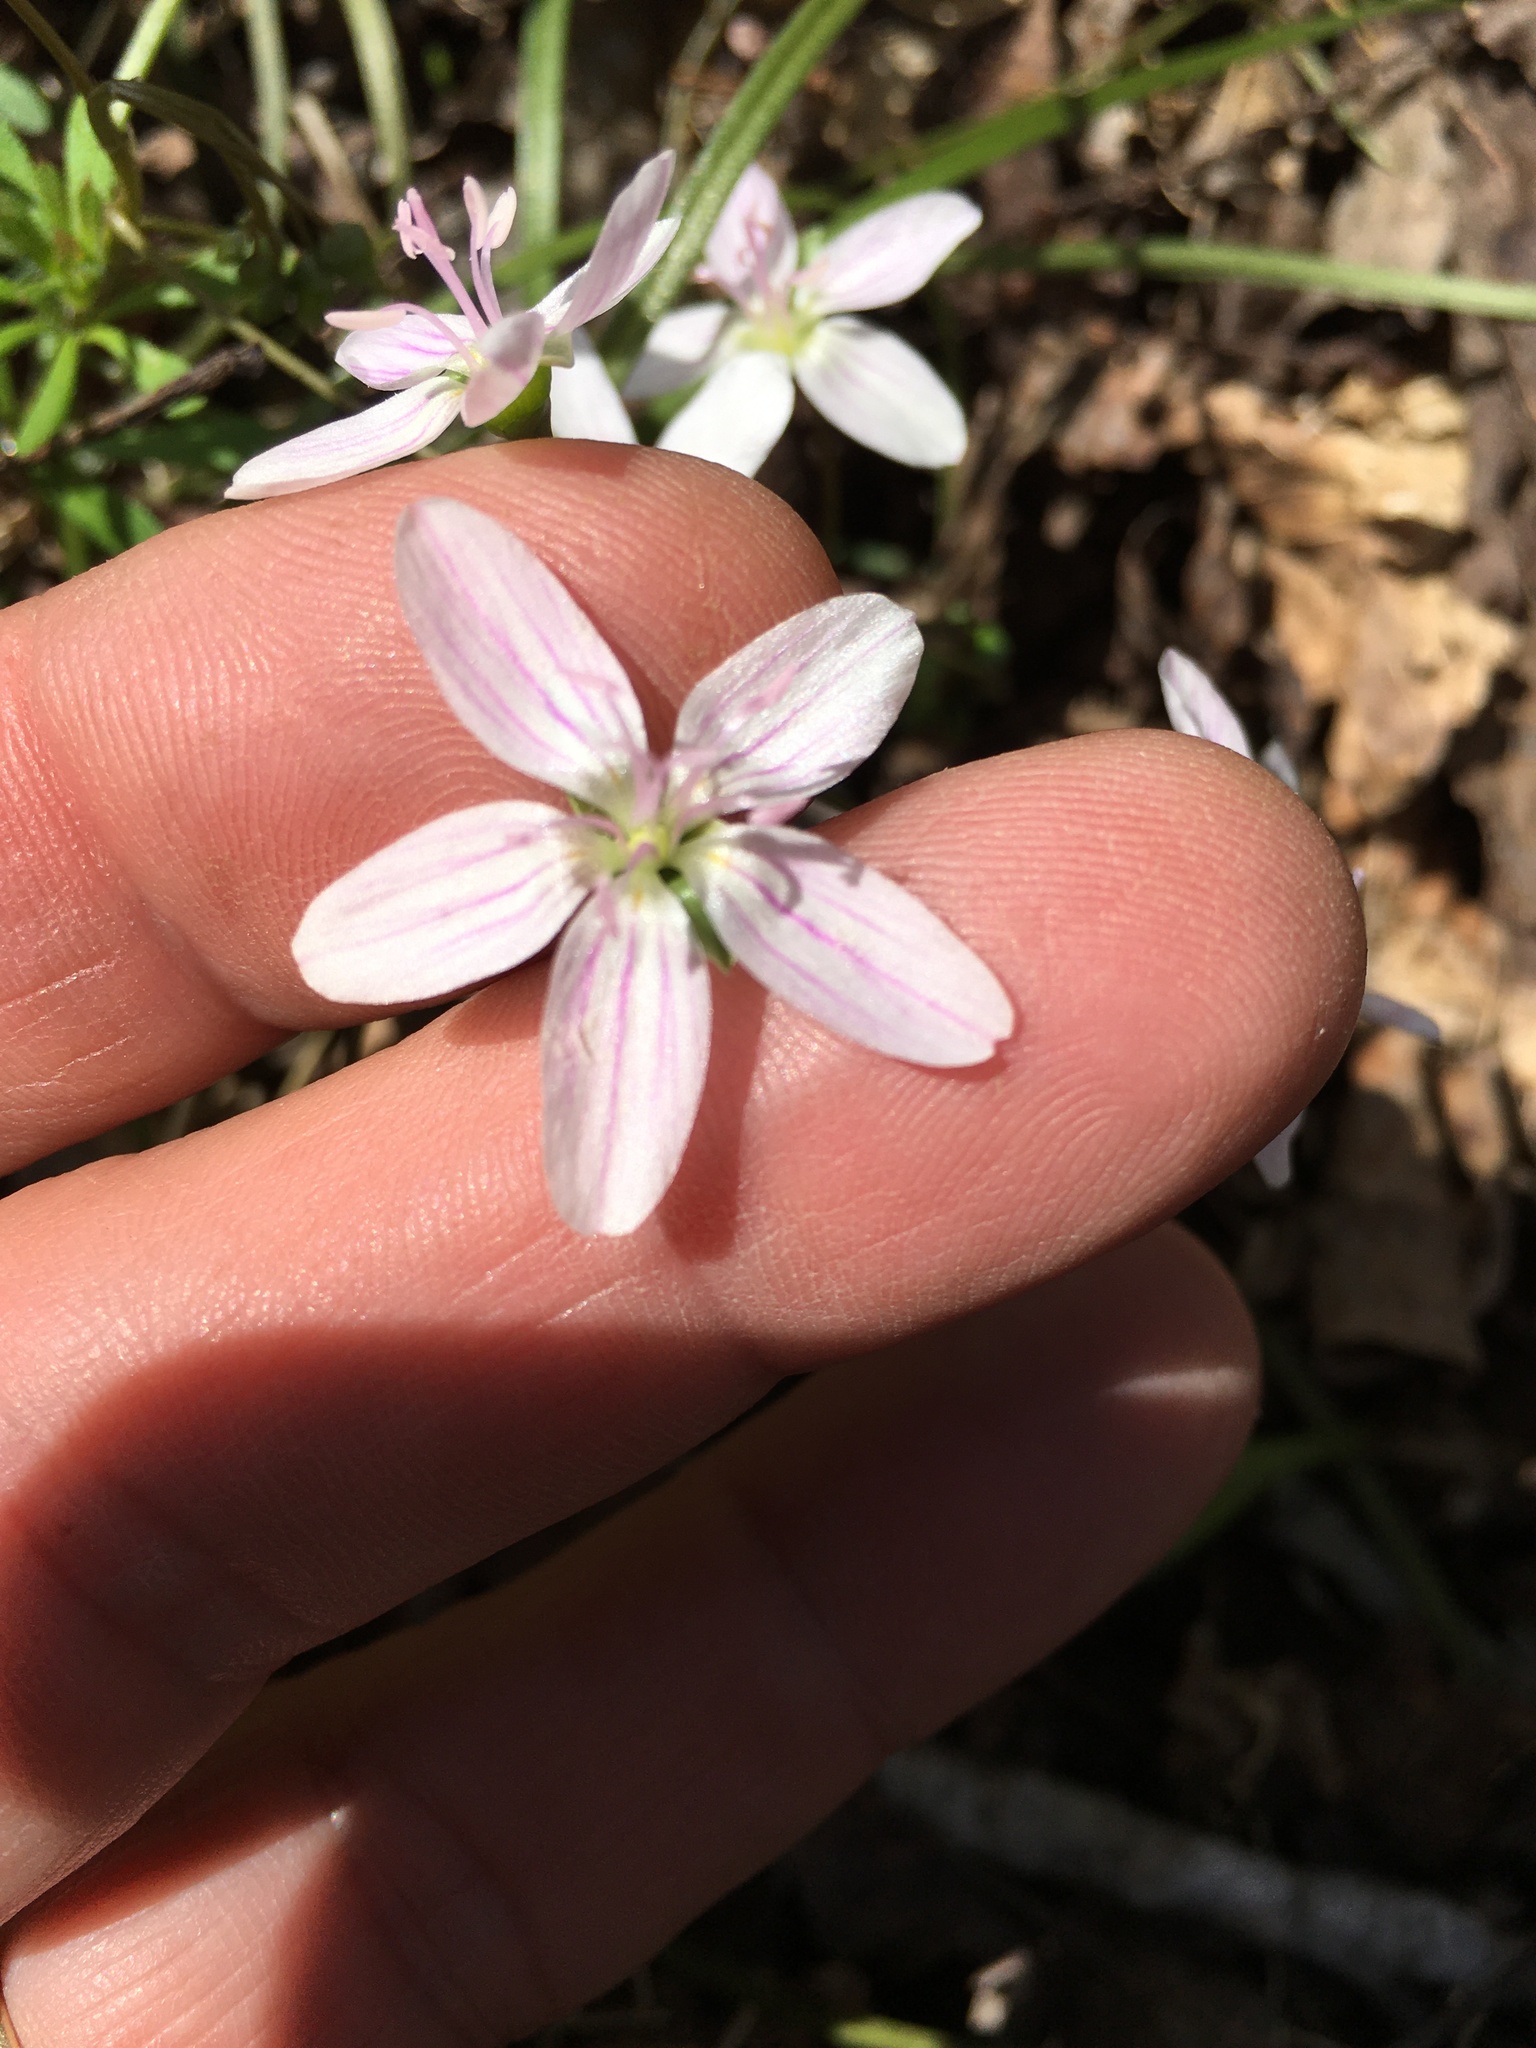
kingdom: Plantae
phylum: Tracheophyta
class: Magnoliopsida
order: Caryophyllales
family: Montiaceae
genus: Claytonia
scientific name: Claytonia virginica
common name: Virginia springbeauty
